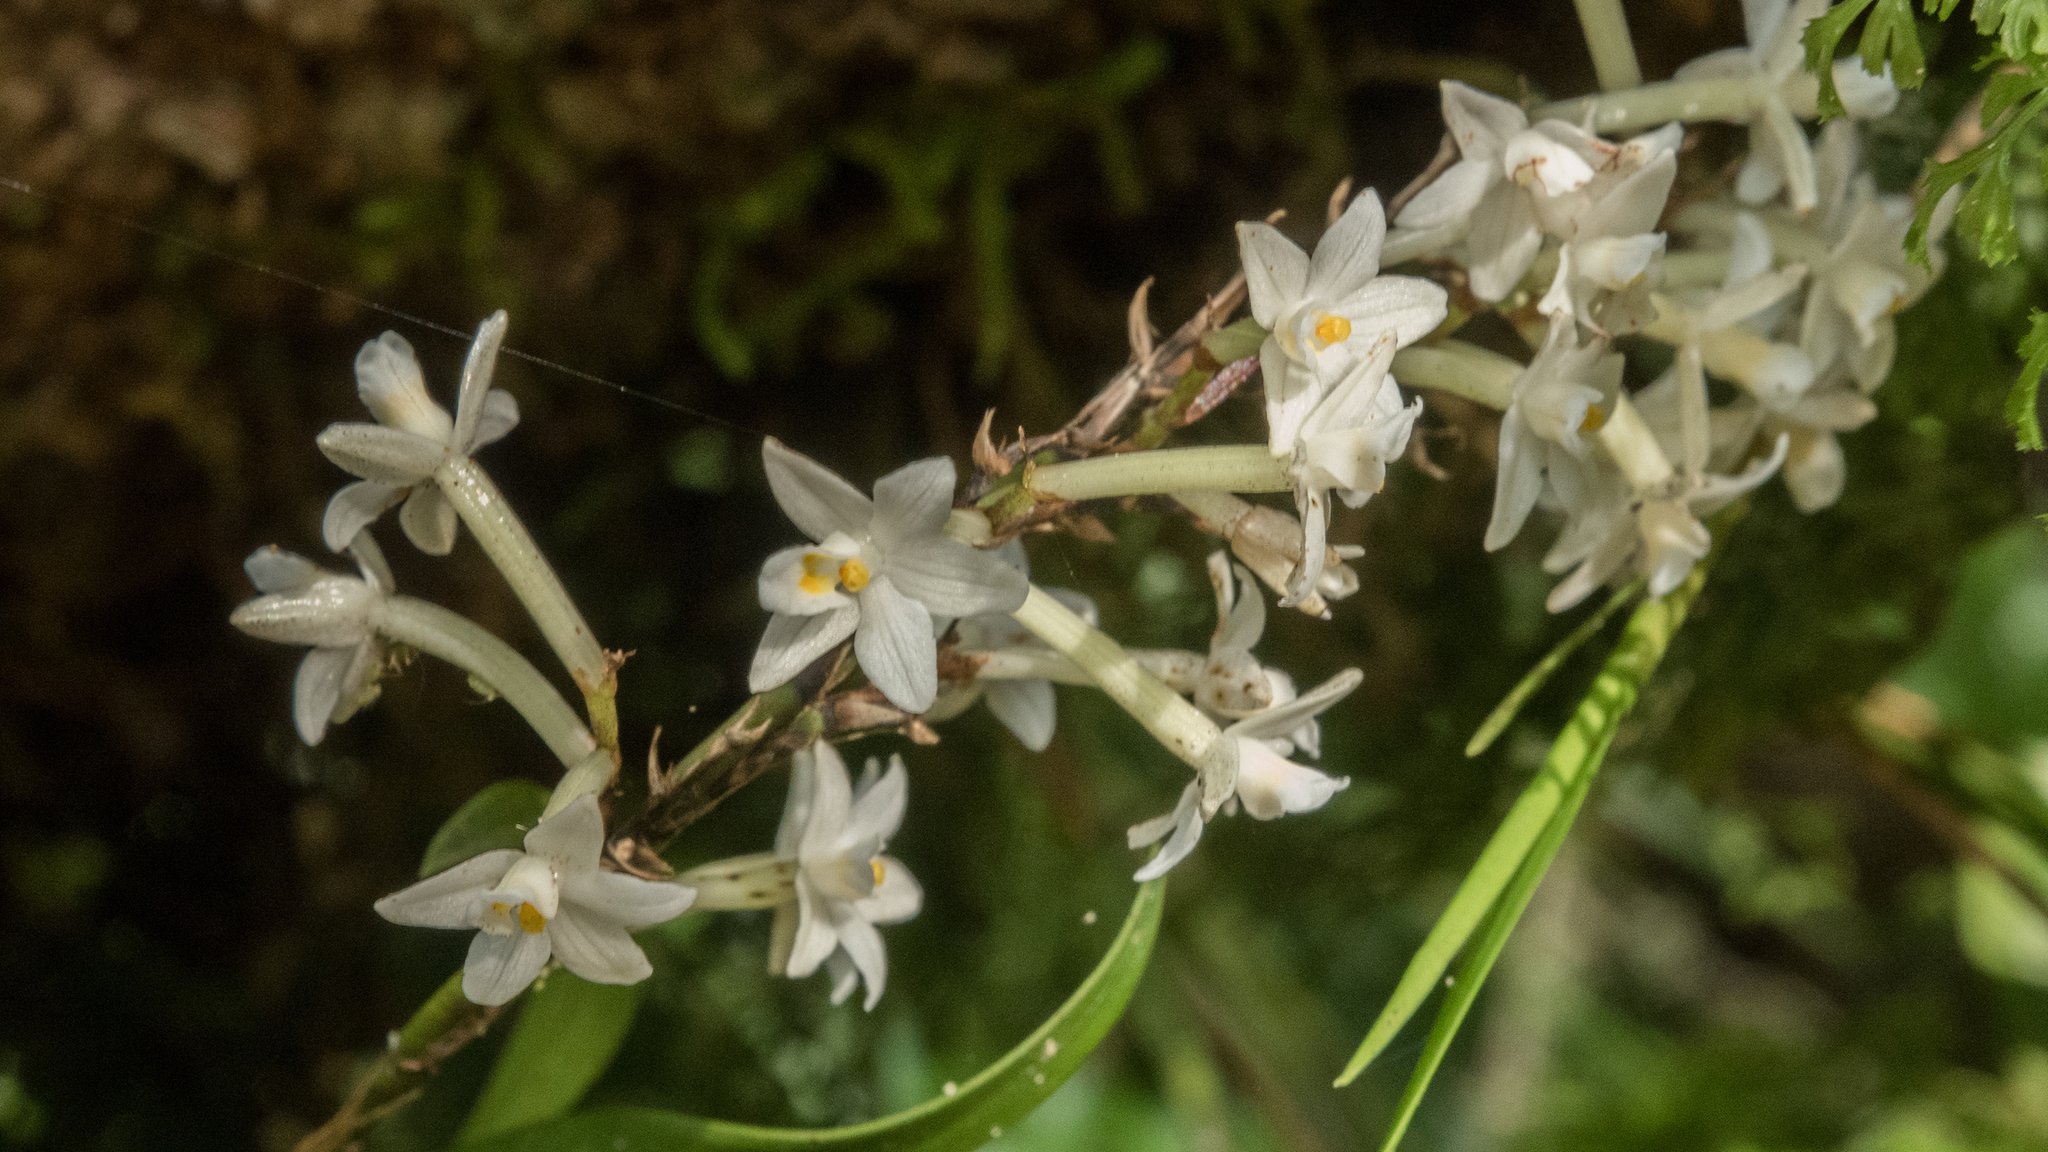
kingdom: Plantae
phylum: Tracheophyta
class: Liliopsida
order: Asparagales
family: Orchidaceae
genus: Earina
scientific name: Earina autumnalis
